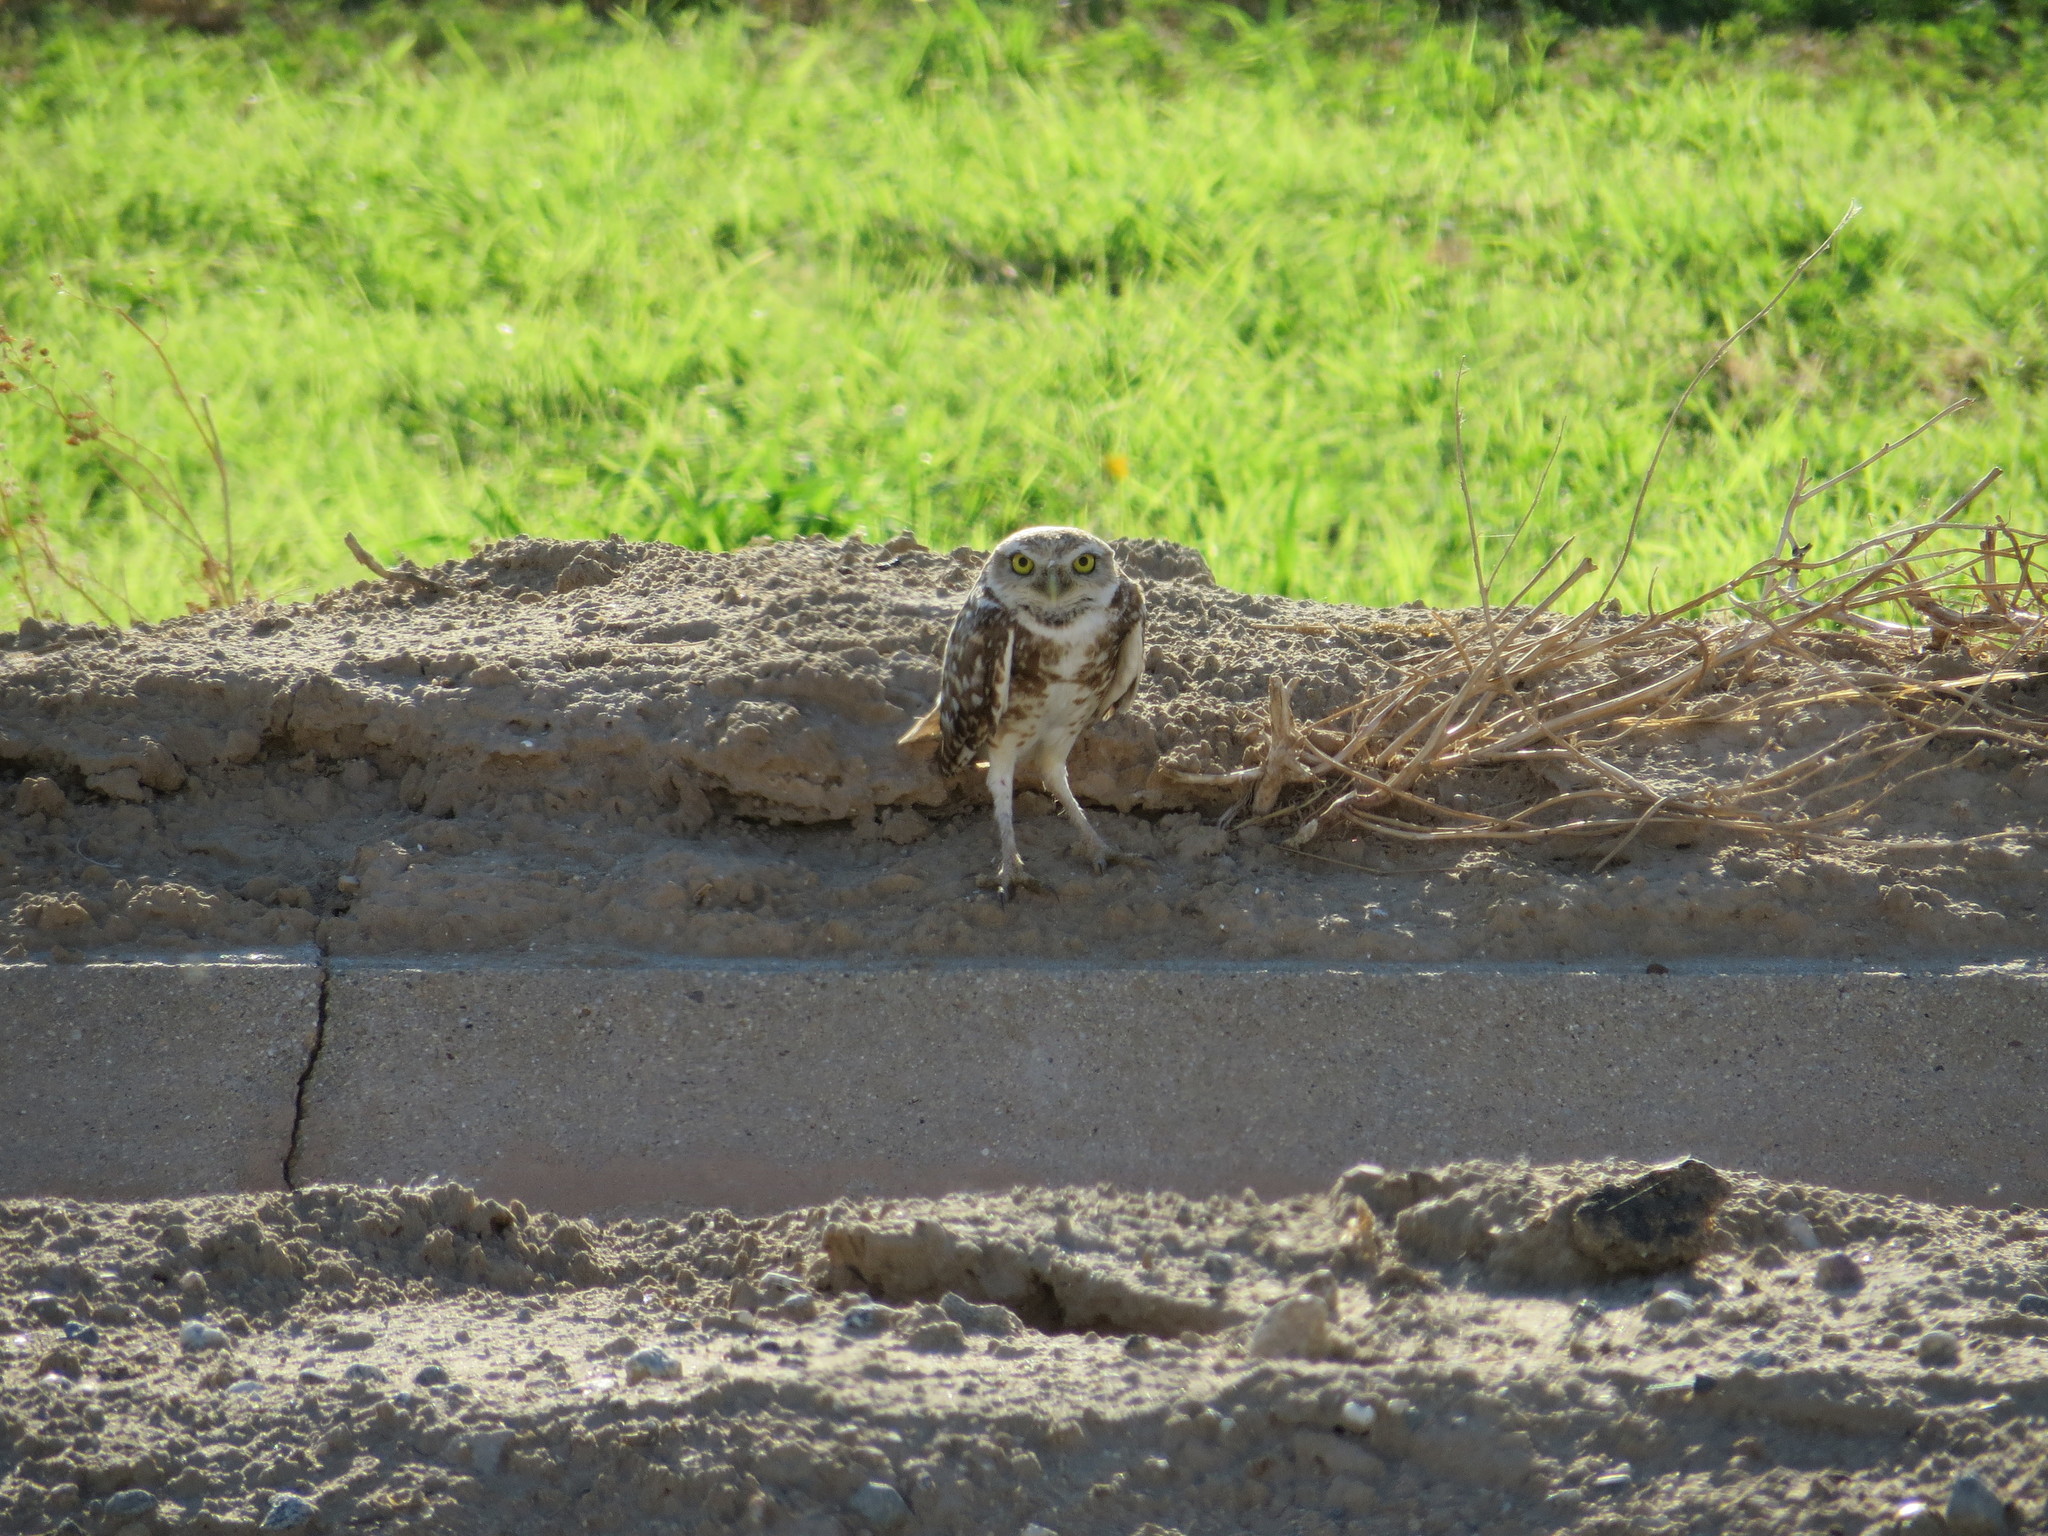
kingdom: Animalia
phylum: Chordata
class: Aves
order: Strigiformes
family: Strigidae
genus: Athene
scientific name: Athene cunicularia
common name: Burrowing owl
